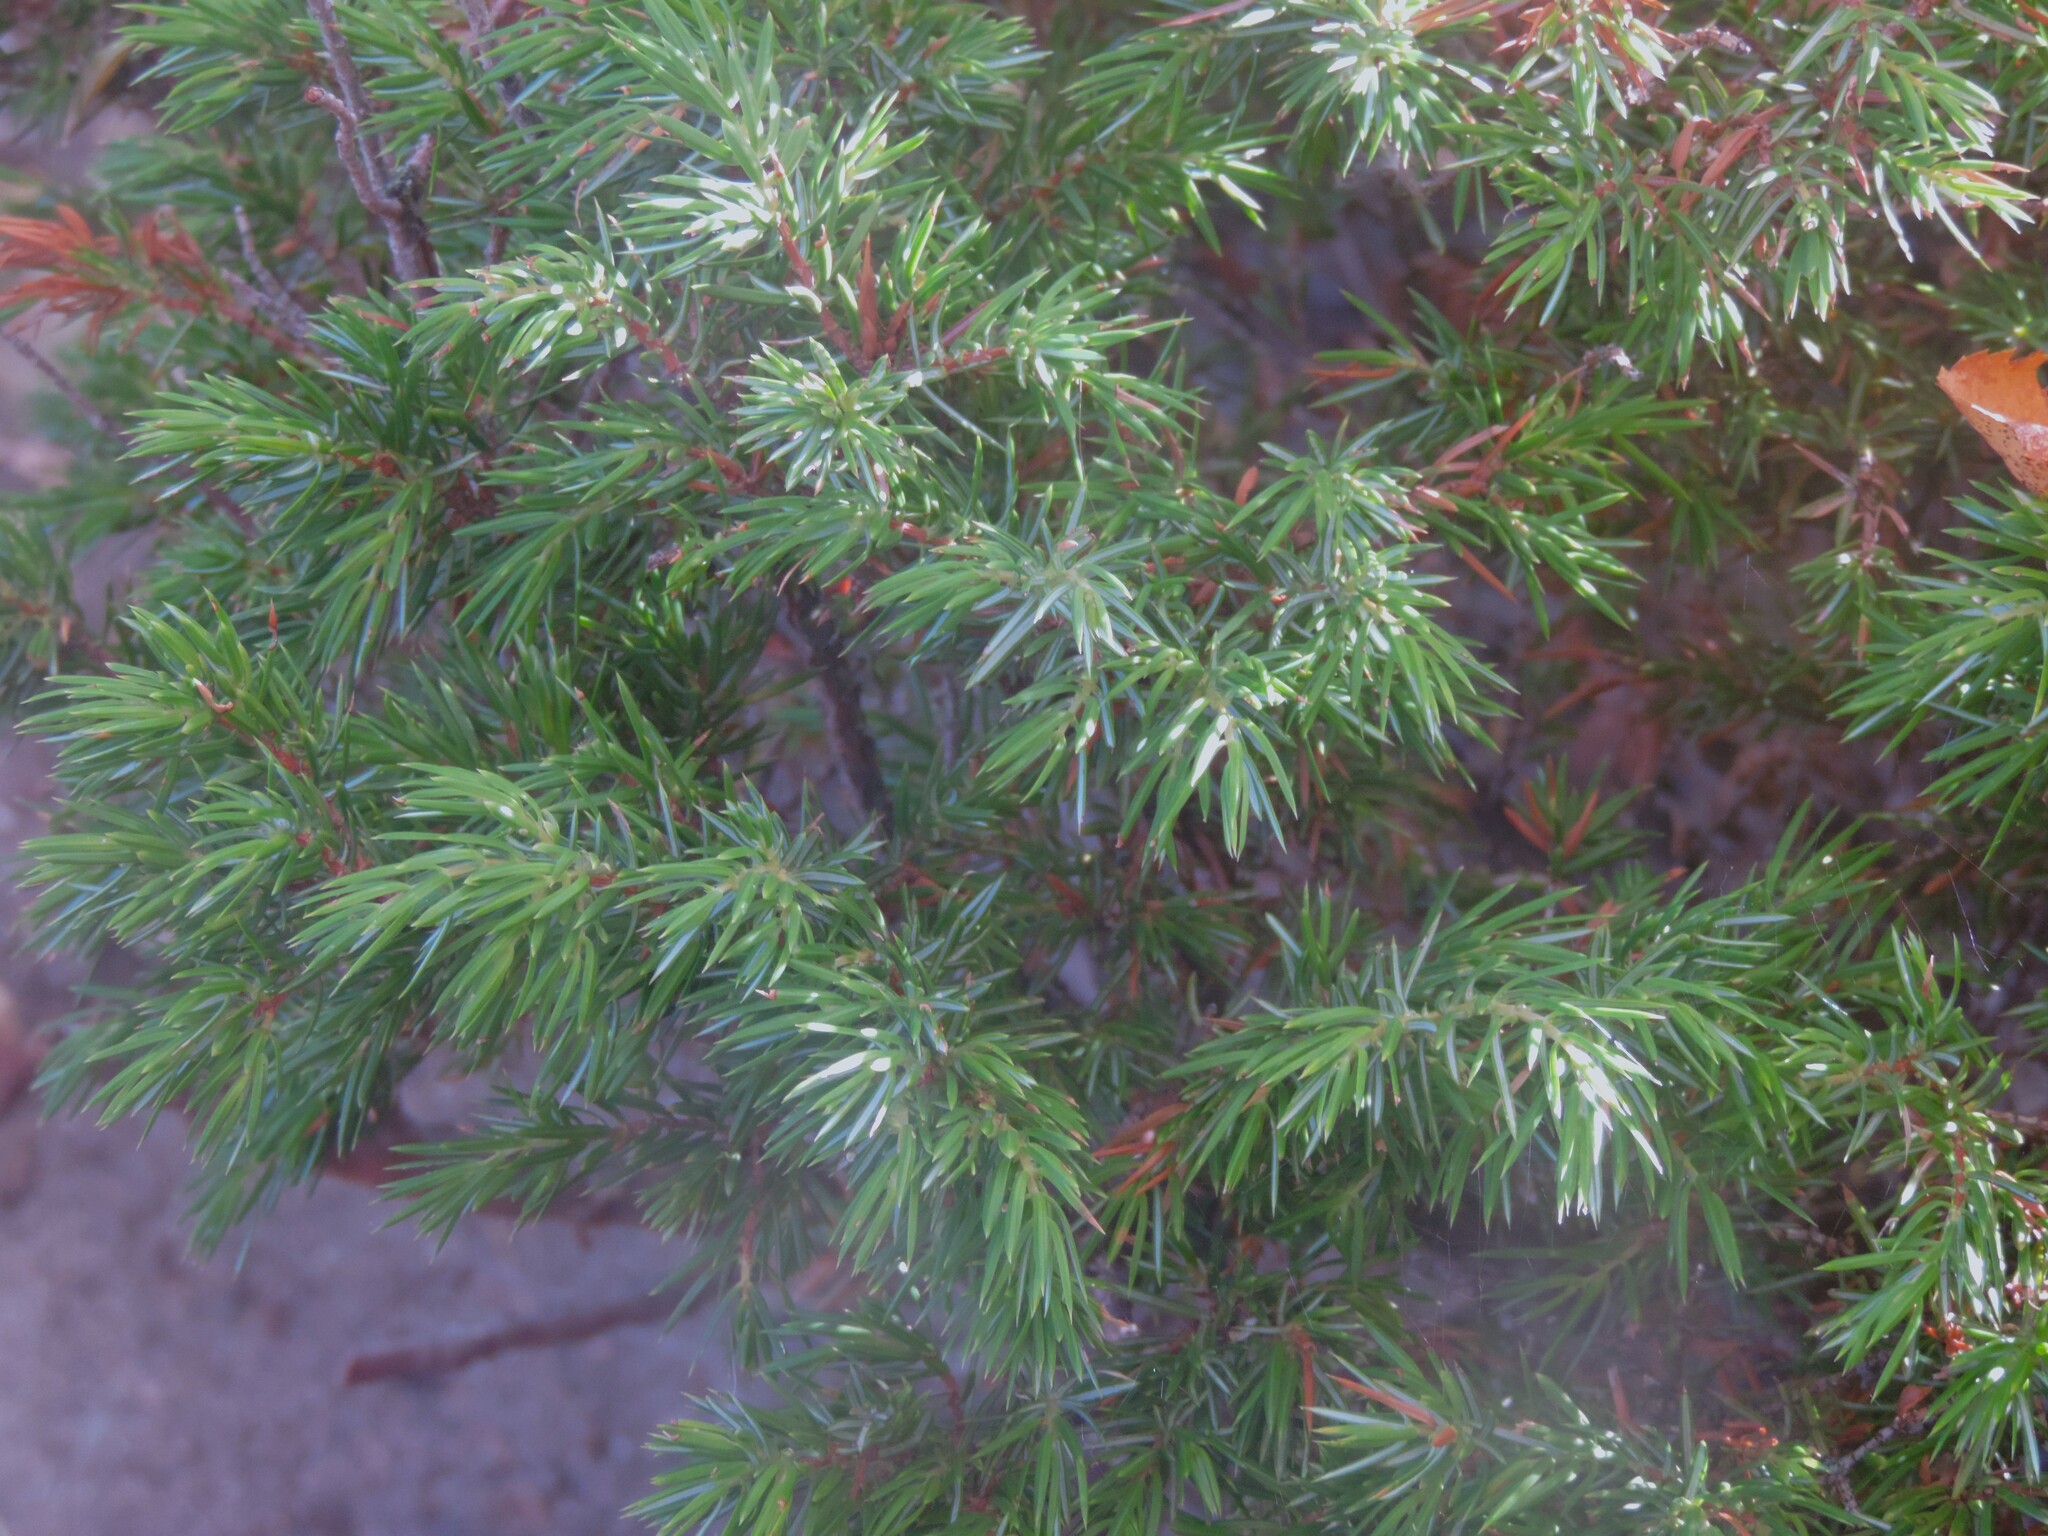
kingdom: Plantae
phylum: Tracheophyta
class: Pinopsida
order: Pinales
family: Cupressaceae
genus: Juniperus
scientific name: Juniperus communis
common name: Common juniper
